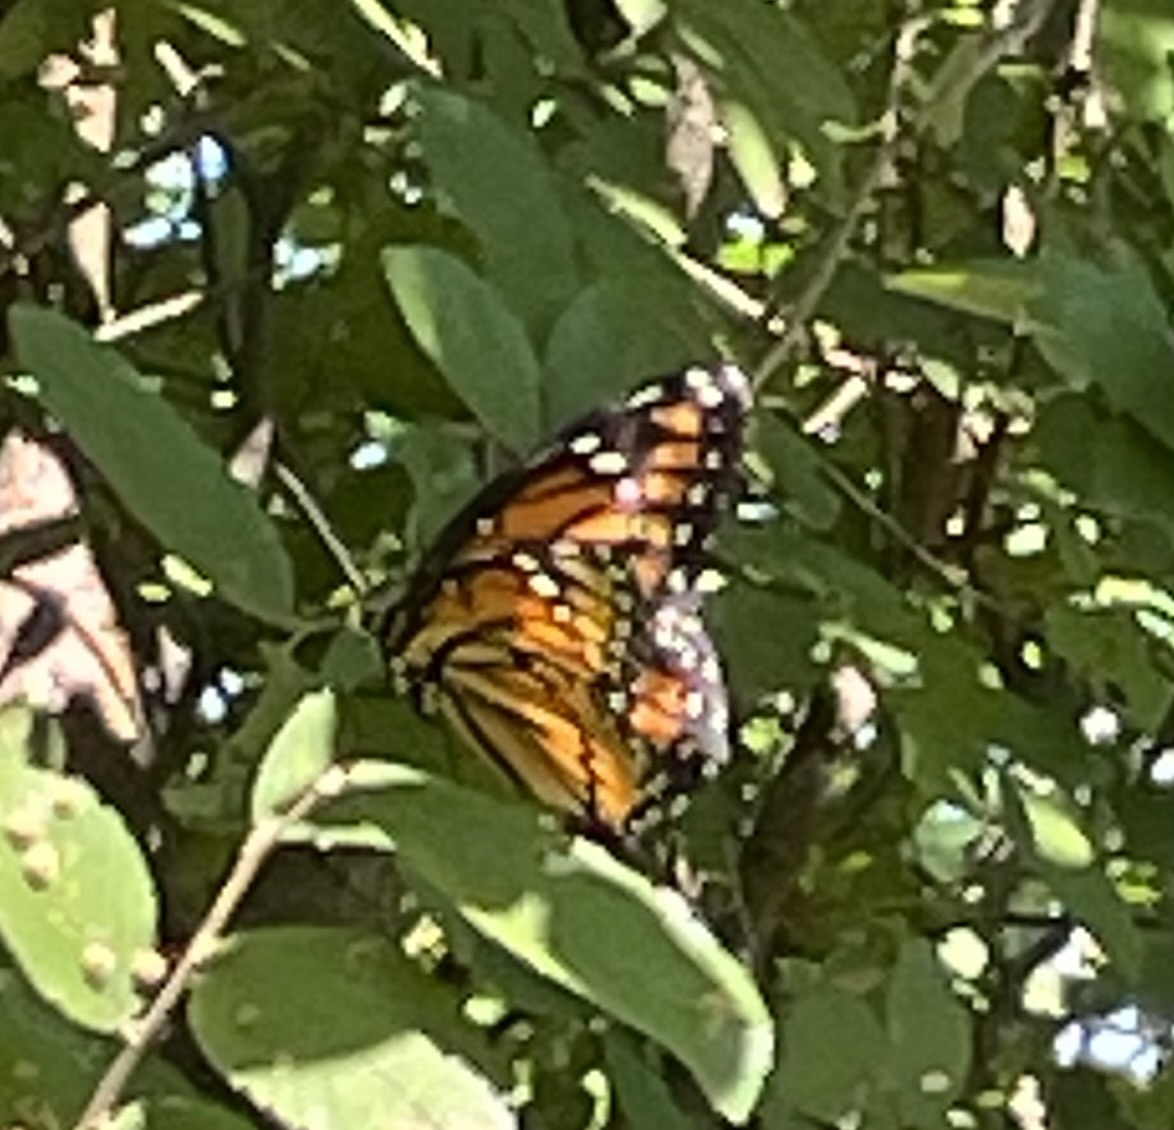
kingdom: Animalia
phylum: Arthropoda
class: Insecta
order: Lepidoptera
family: Nymphalidae
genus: Limenitis
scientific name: Limenitis archippus
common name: Viceroy
